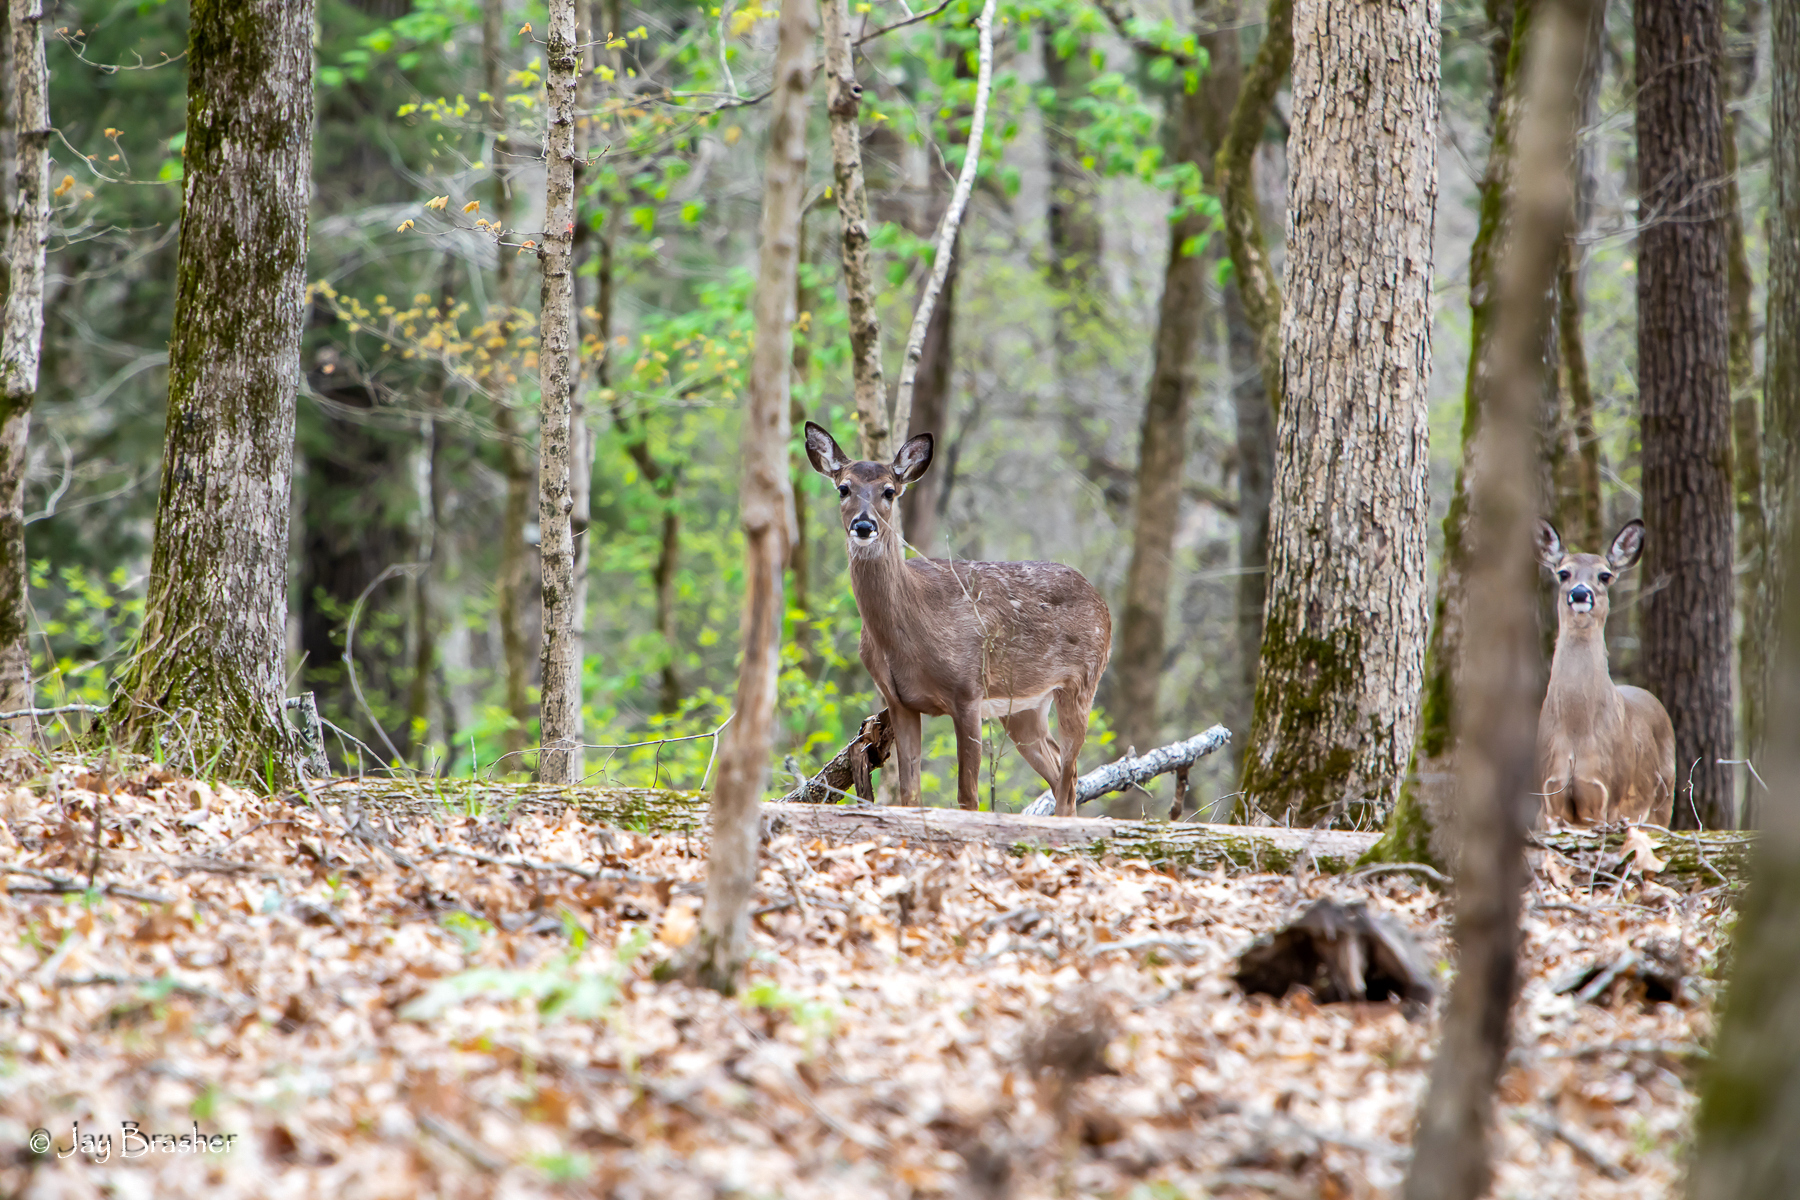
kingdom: Animalia
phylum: Chordata
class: Mammalia
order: Artiodactyla
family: Cervidae
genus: Odocoileus
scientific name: Odocoileus virginianus
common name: White-tailed deer
